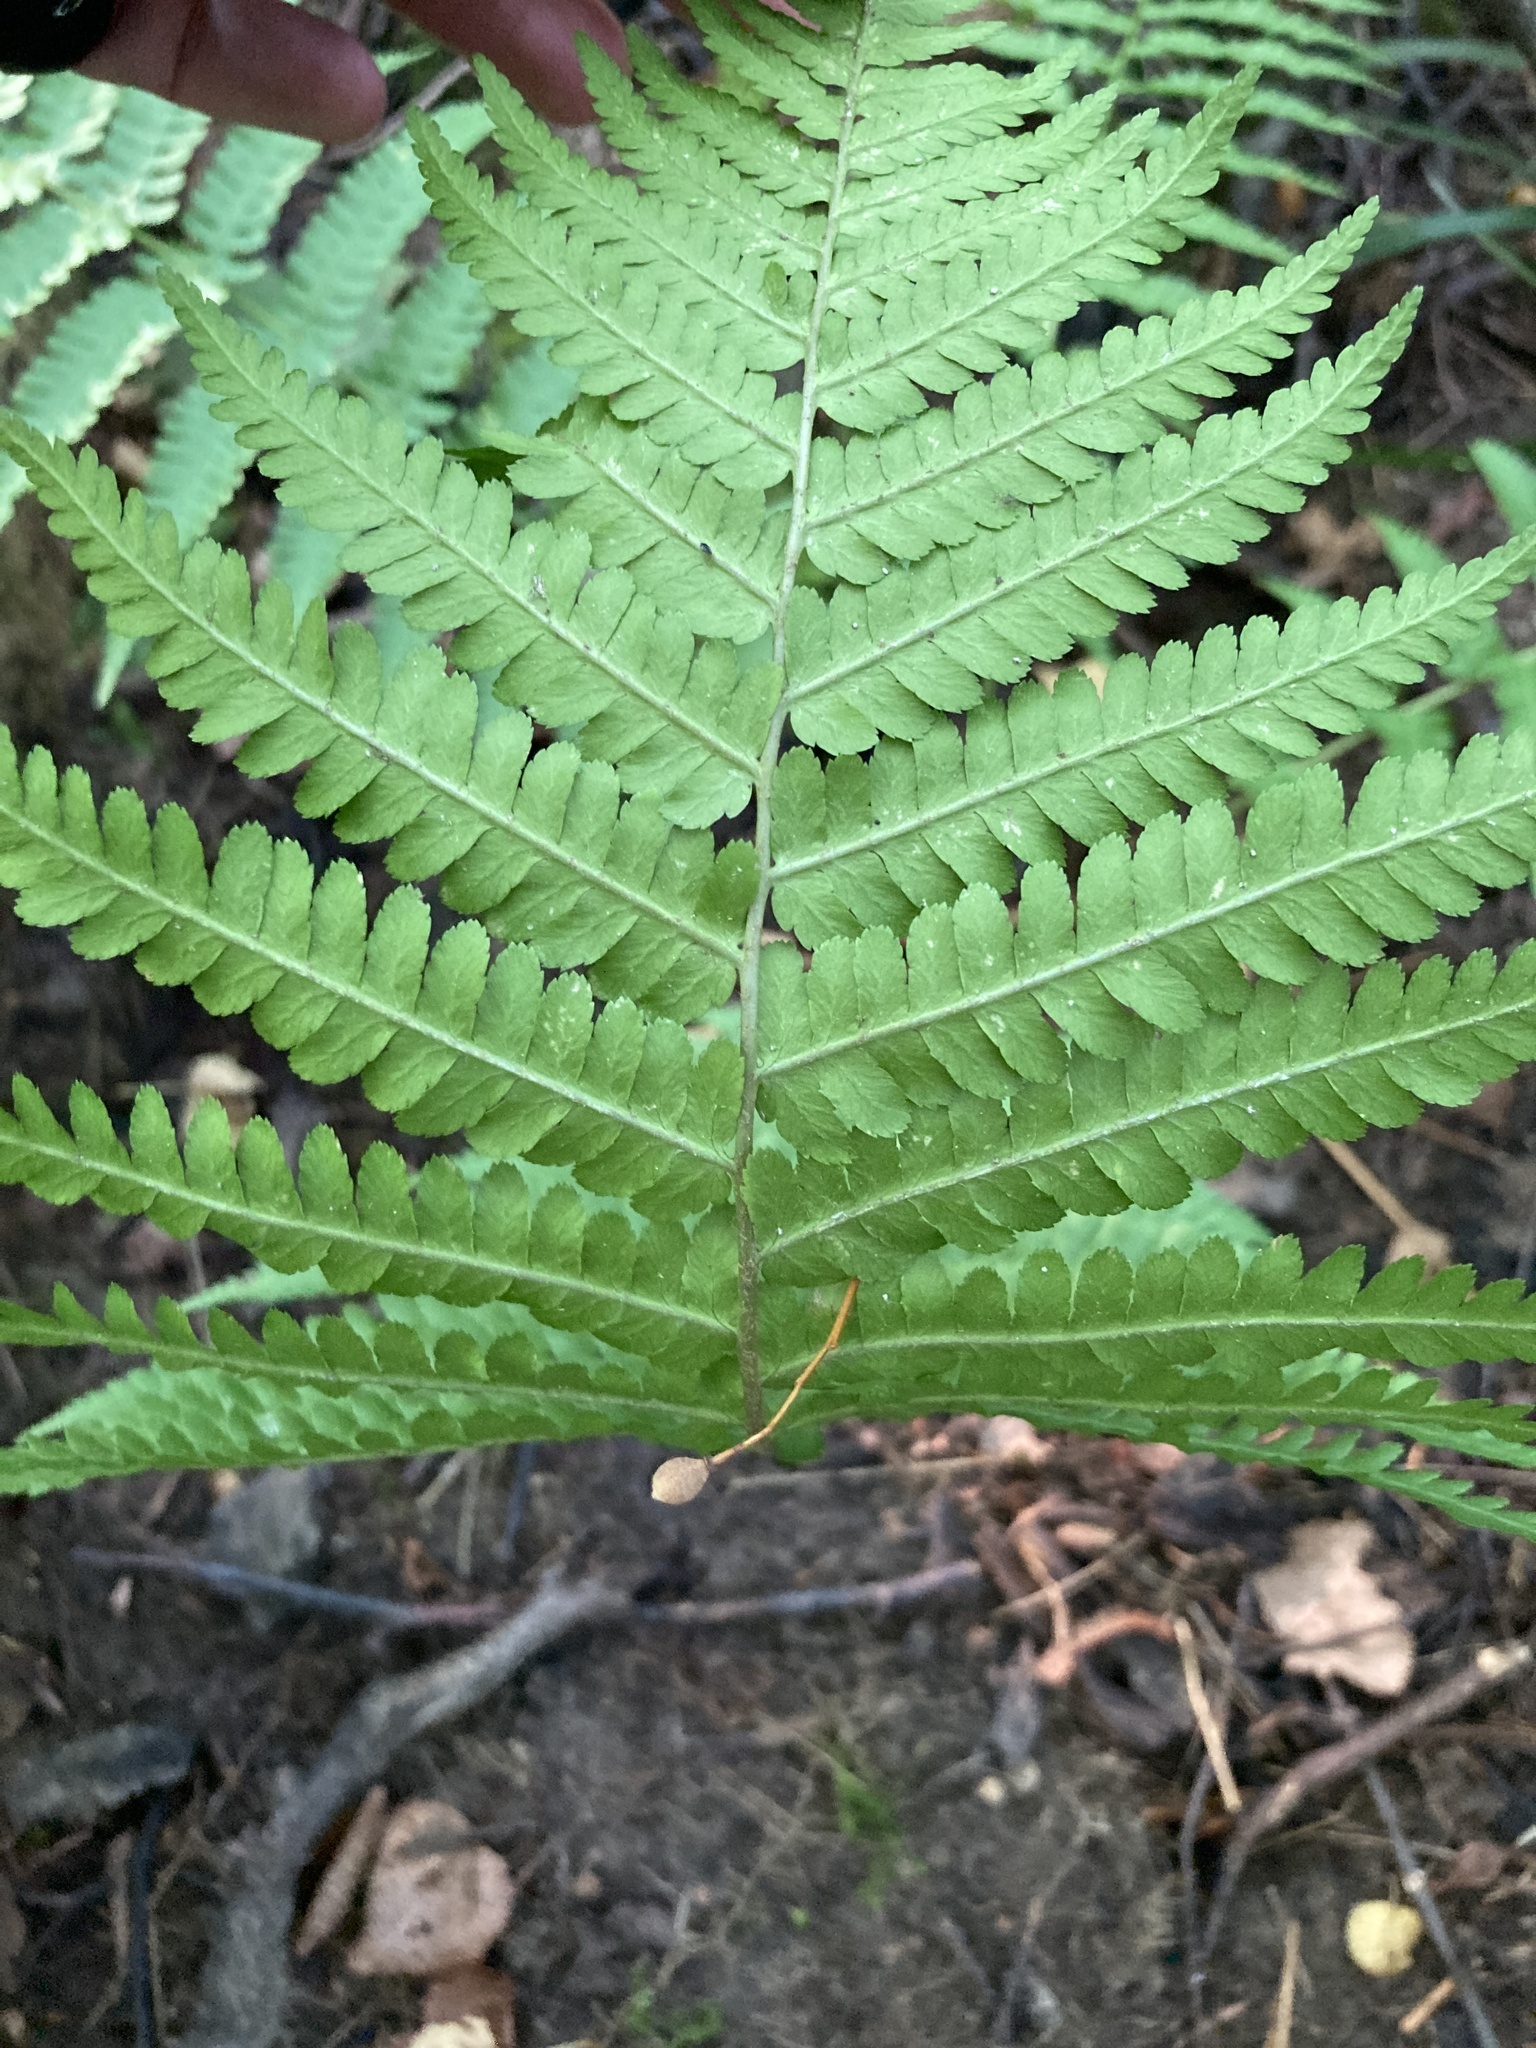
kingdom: Plantae
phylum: Tracheophyta
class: Polypodiopsida
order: Polypodiales
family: Dryopteridaceae
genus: Dryopteris
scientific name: Dryopteris filix-mas
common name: Male fern
